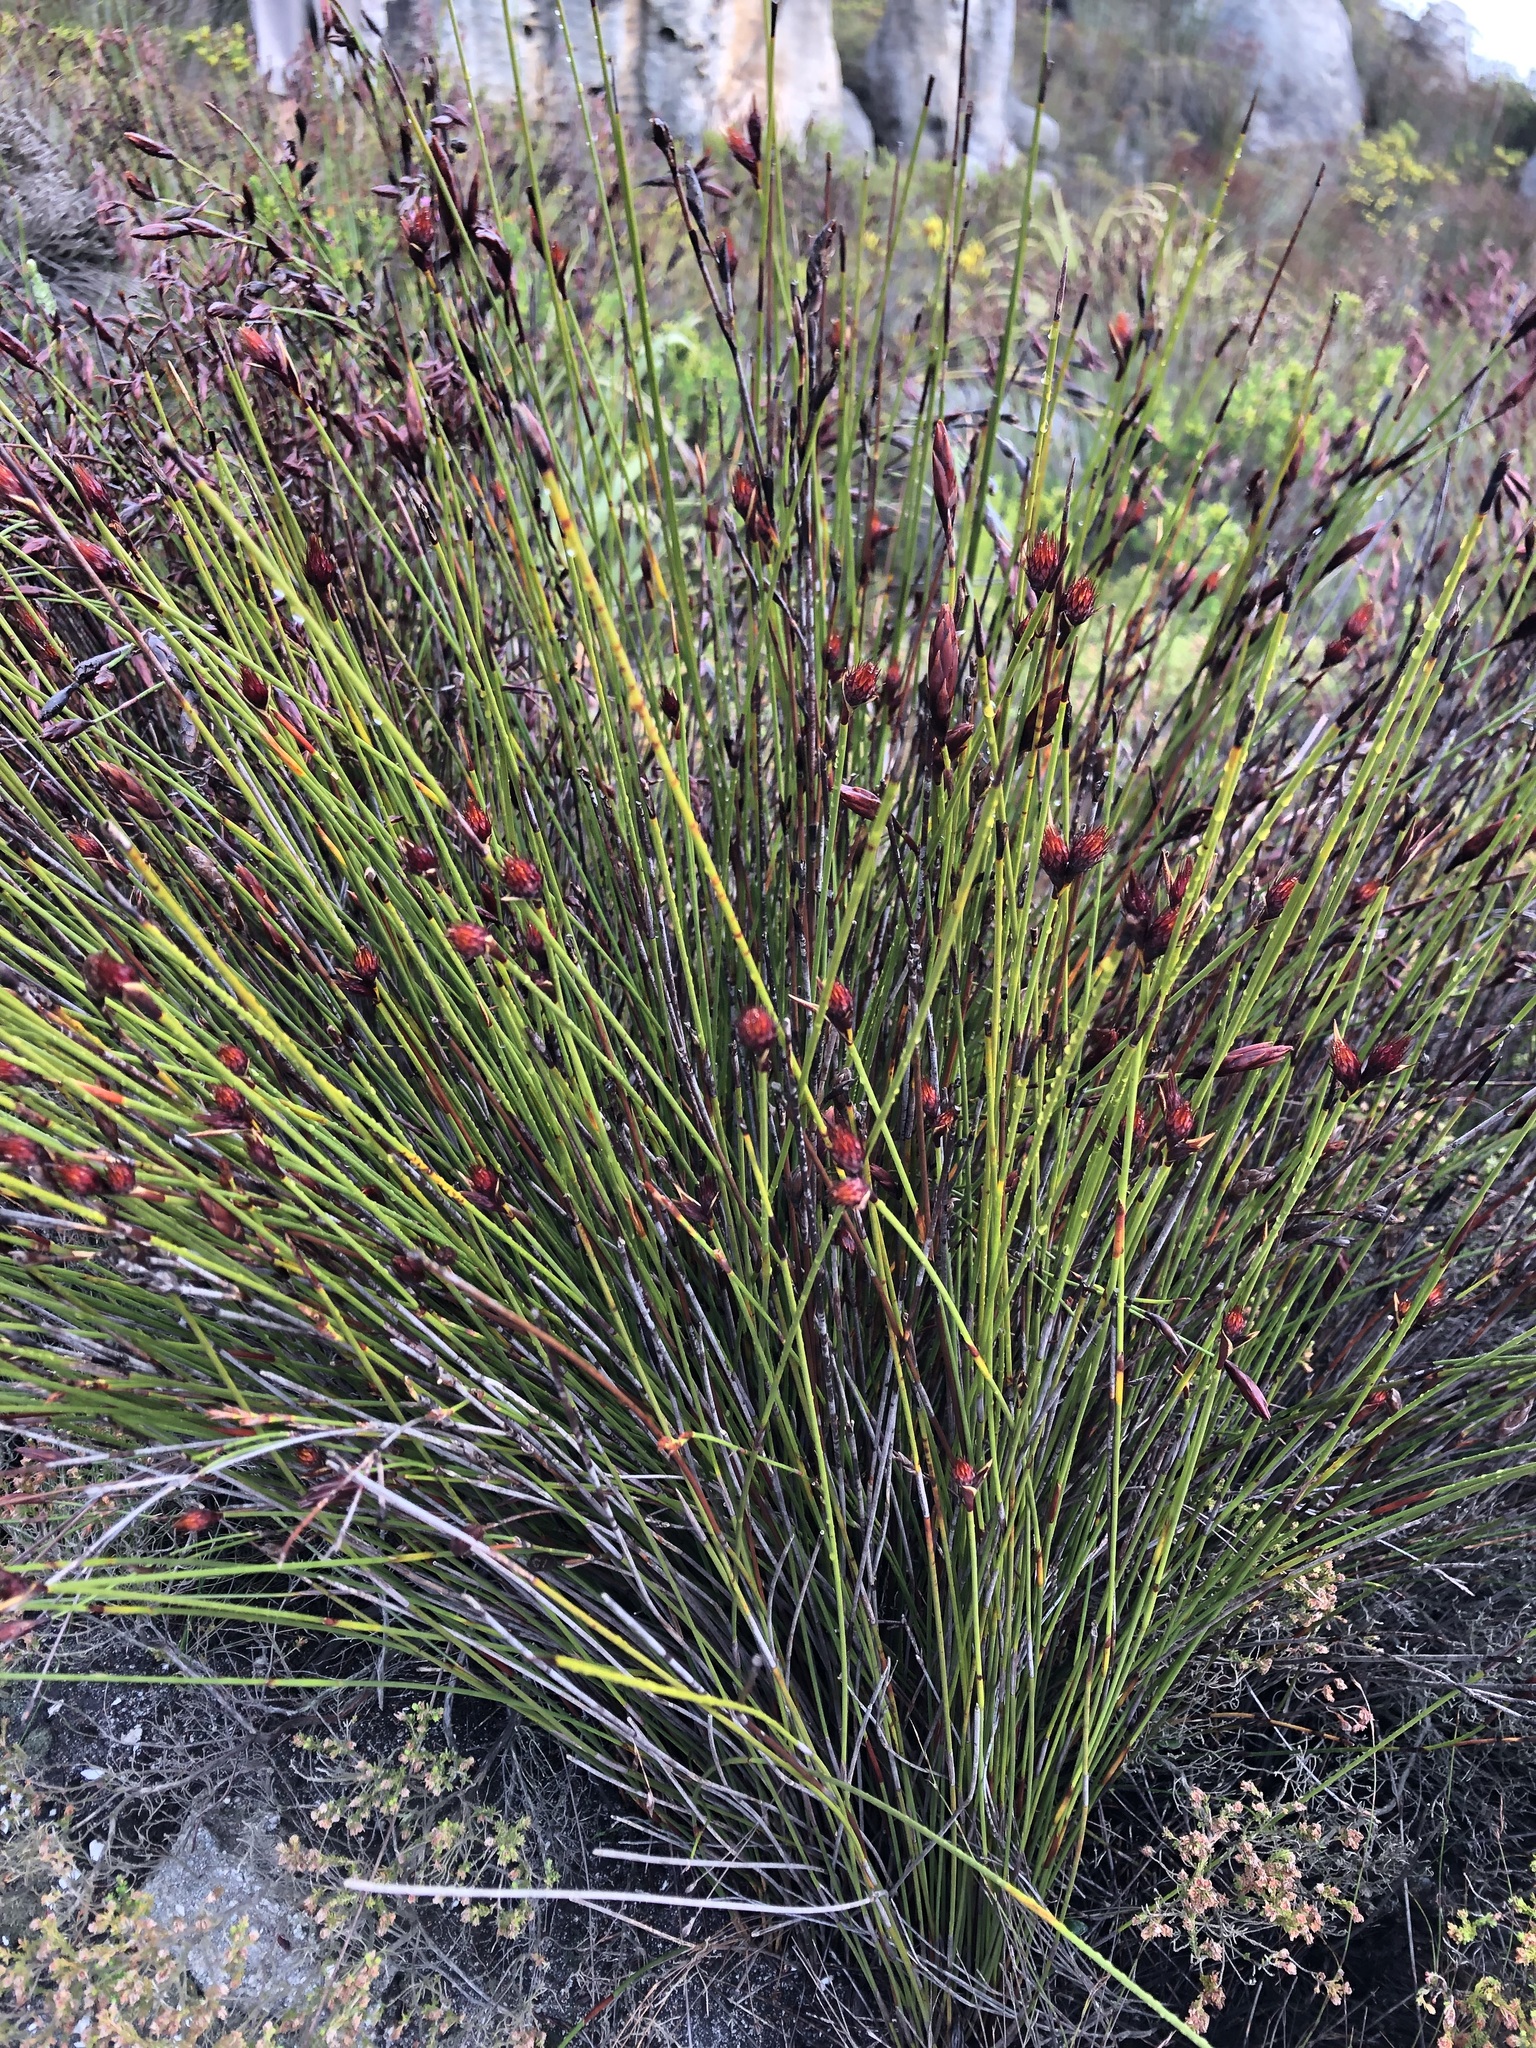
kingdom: Plantae
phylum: Tracheophyta
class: Liliopsida
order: Poales
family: Restionaceae
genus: Hypodiscus
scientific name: Hypodiscus aristatus
